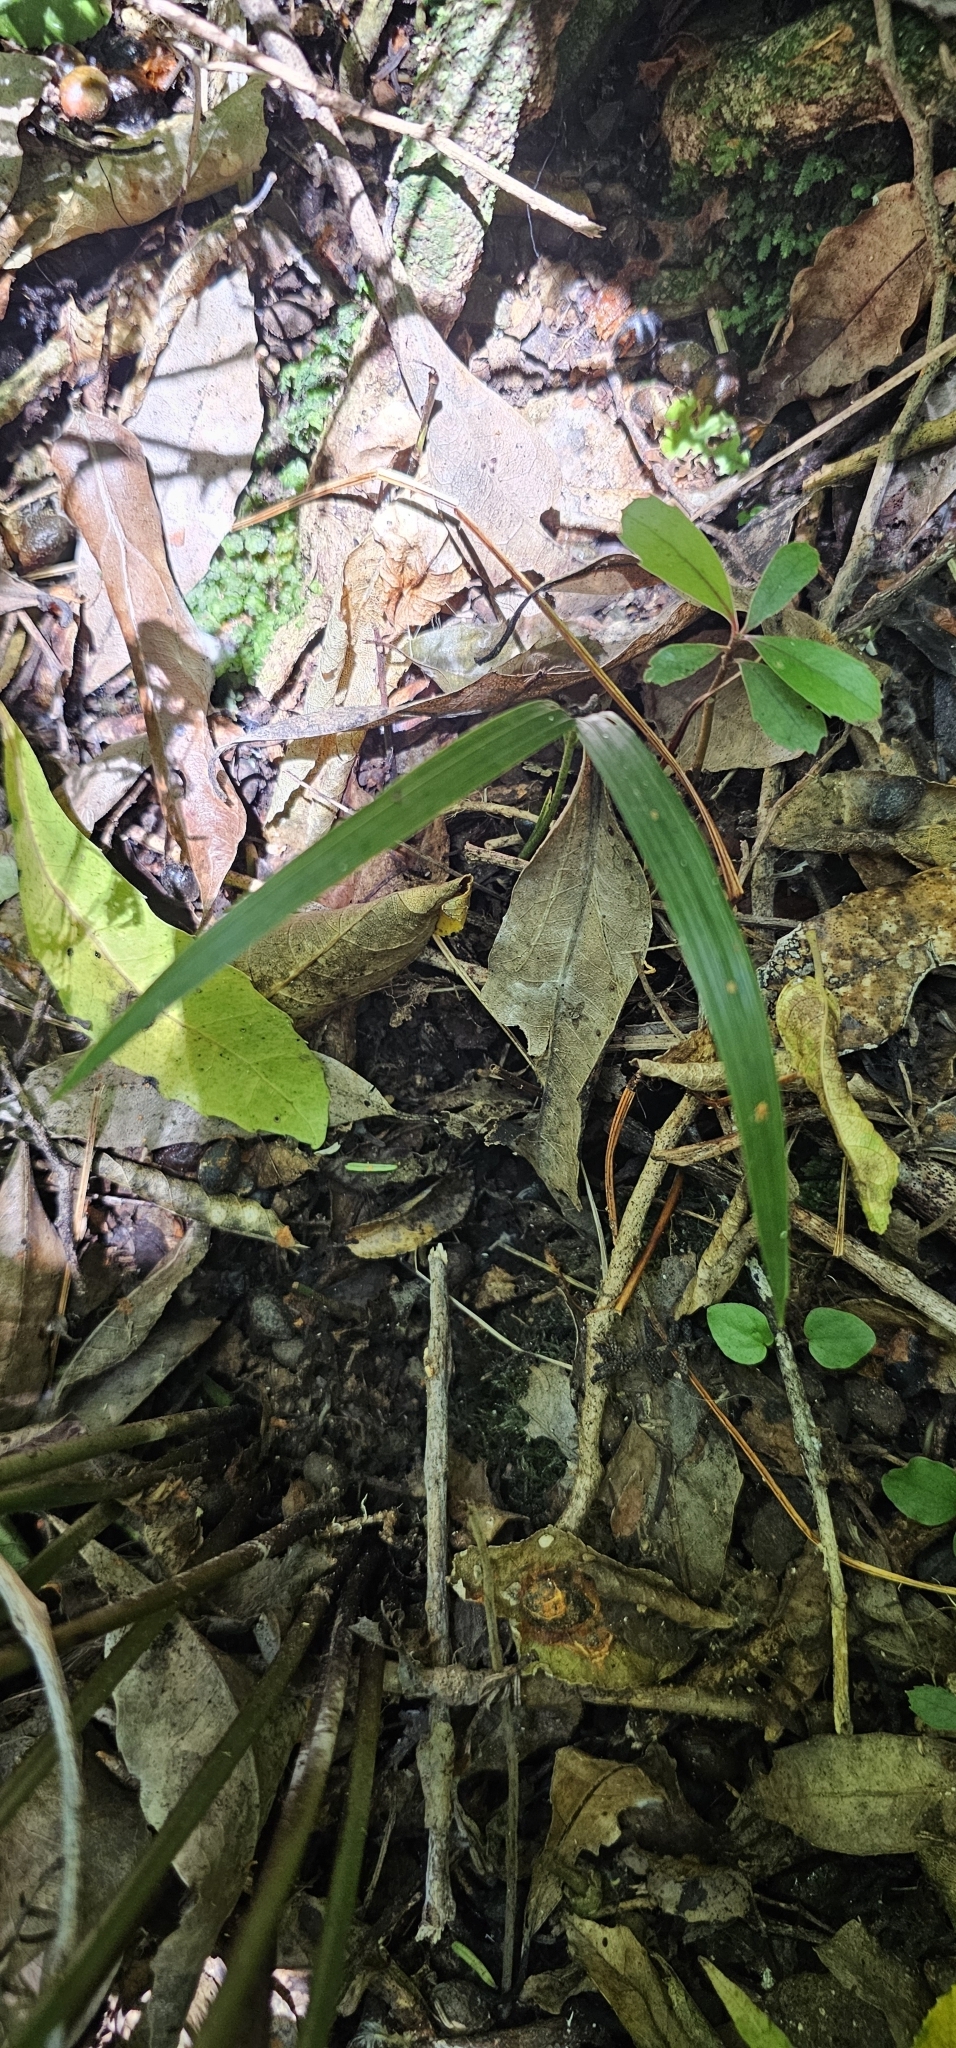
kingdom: Plantae
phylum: Tracheophyta
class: Liliopsida
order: Arecales
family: Arecaceae
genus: Rhopalostylis
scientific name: Rhopalostylis sapida
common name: Feather-duster palm
